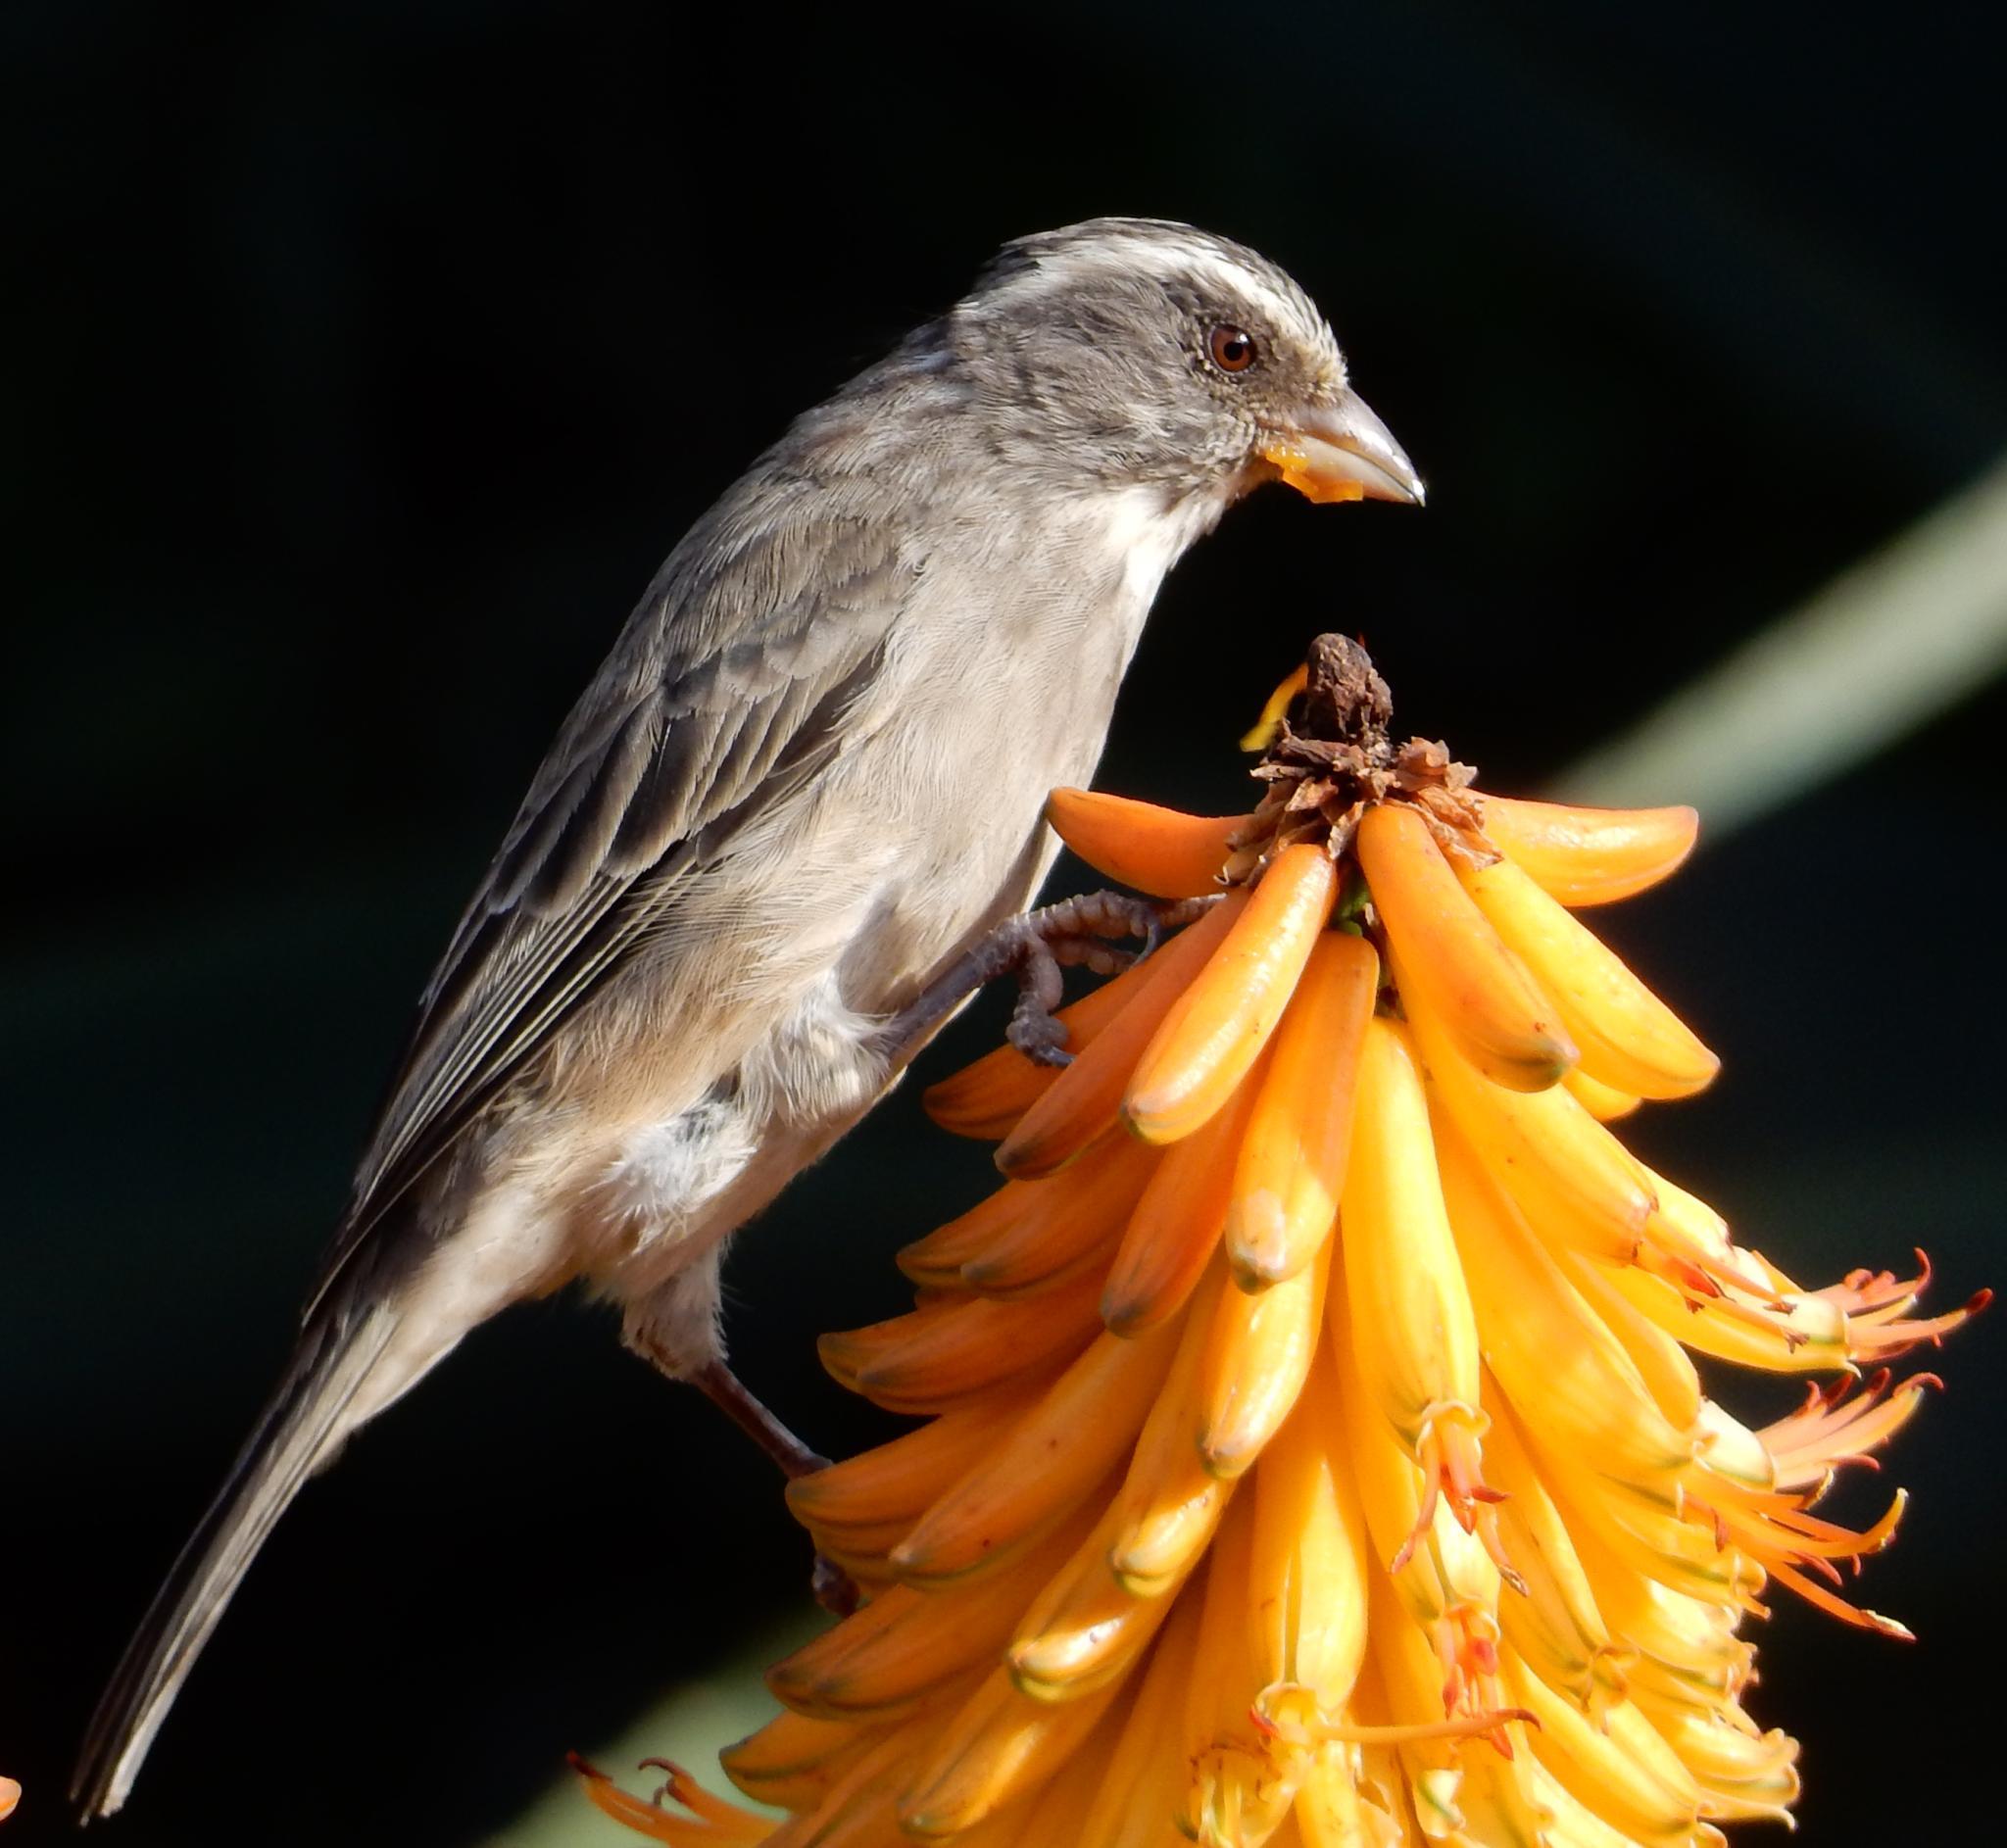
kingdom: Animalia
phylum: Chordata
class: Aves
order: Passeriformes
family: Fringillidae
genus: Crithagra
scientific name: Crithagra gularis
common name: Streaky-headed seedeater
